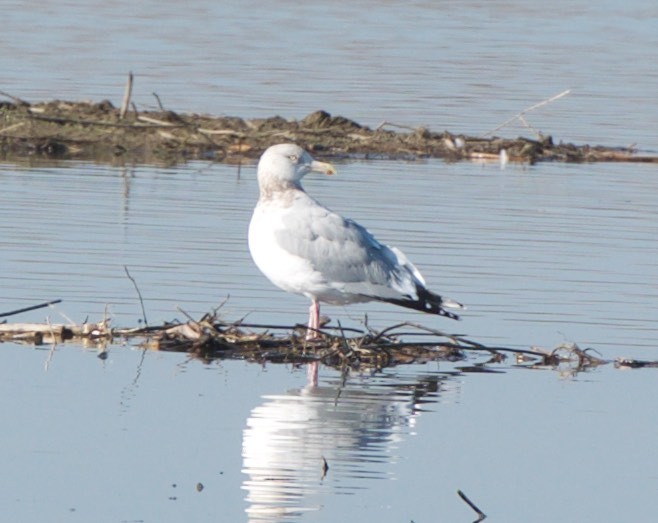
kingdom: Animalia
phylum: Chordata
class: Aves
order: Charadriiformes
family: Laridae
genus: Larus
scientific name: Larus argentatus
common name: Herring gull
